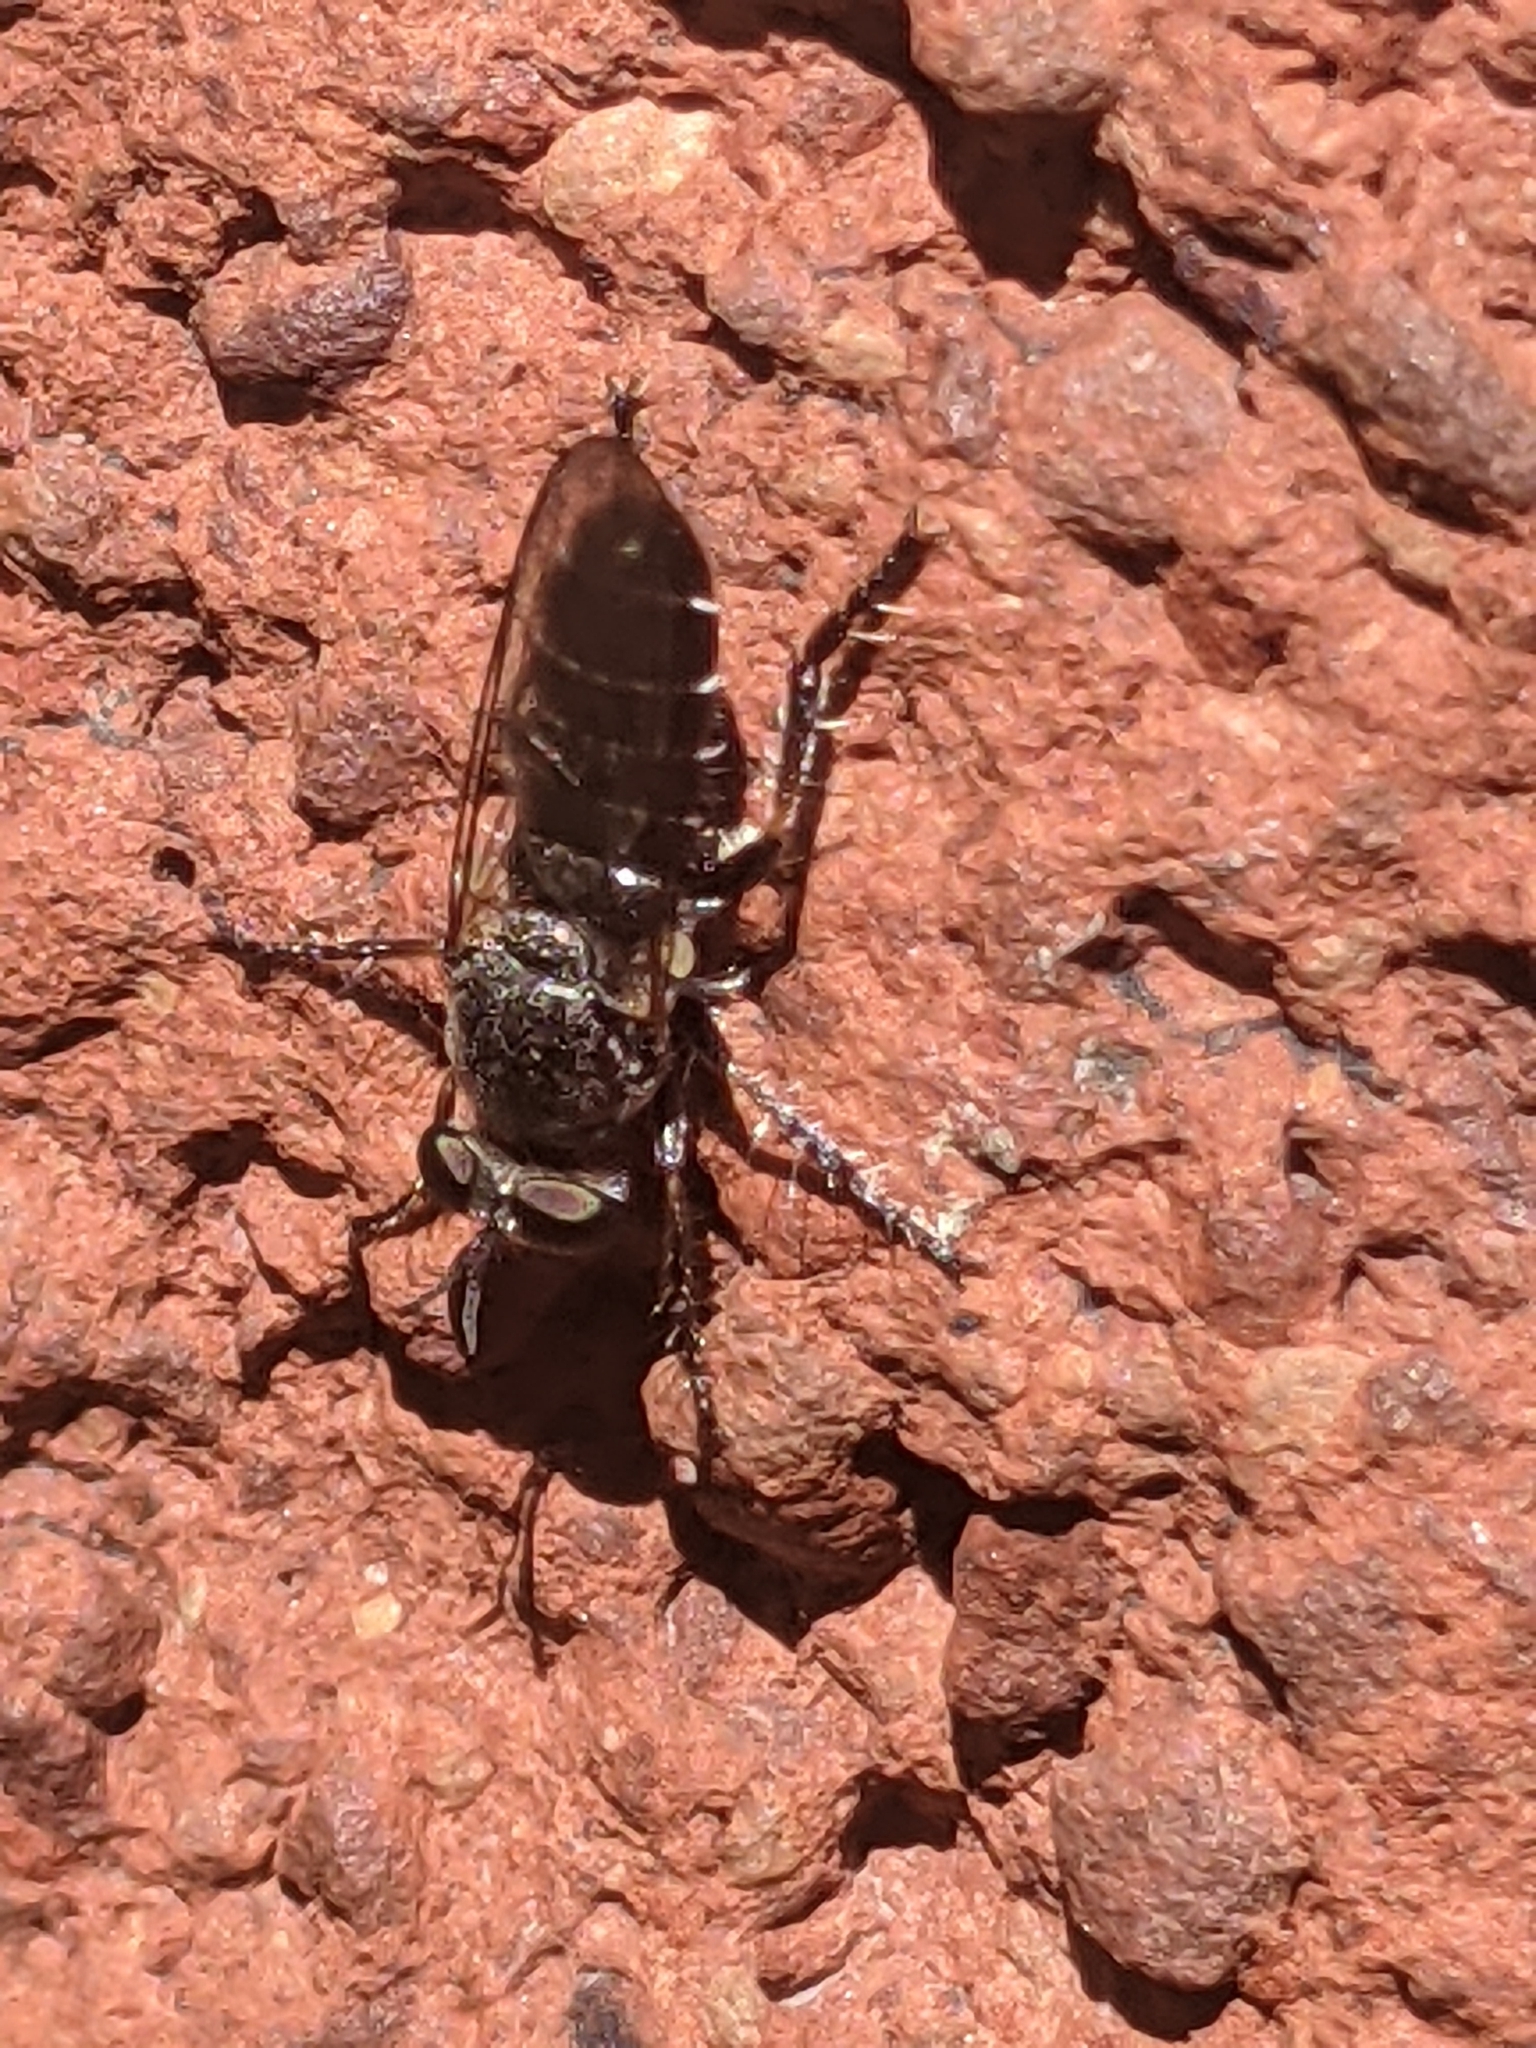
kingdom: Animalia
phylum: Arthropoda
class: Insecta
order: Diptera
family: Asilidae
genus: Atomosia
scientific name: Atomosia puella
